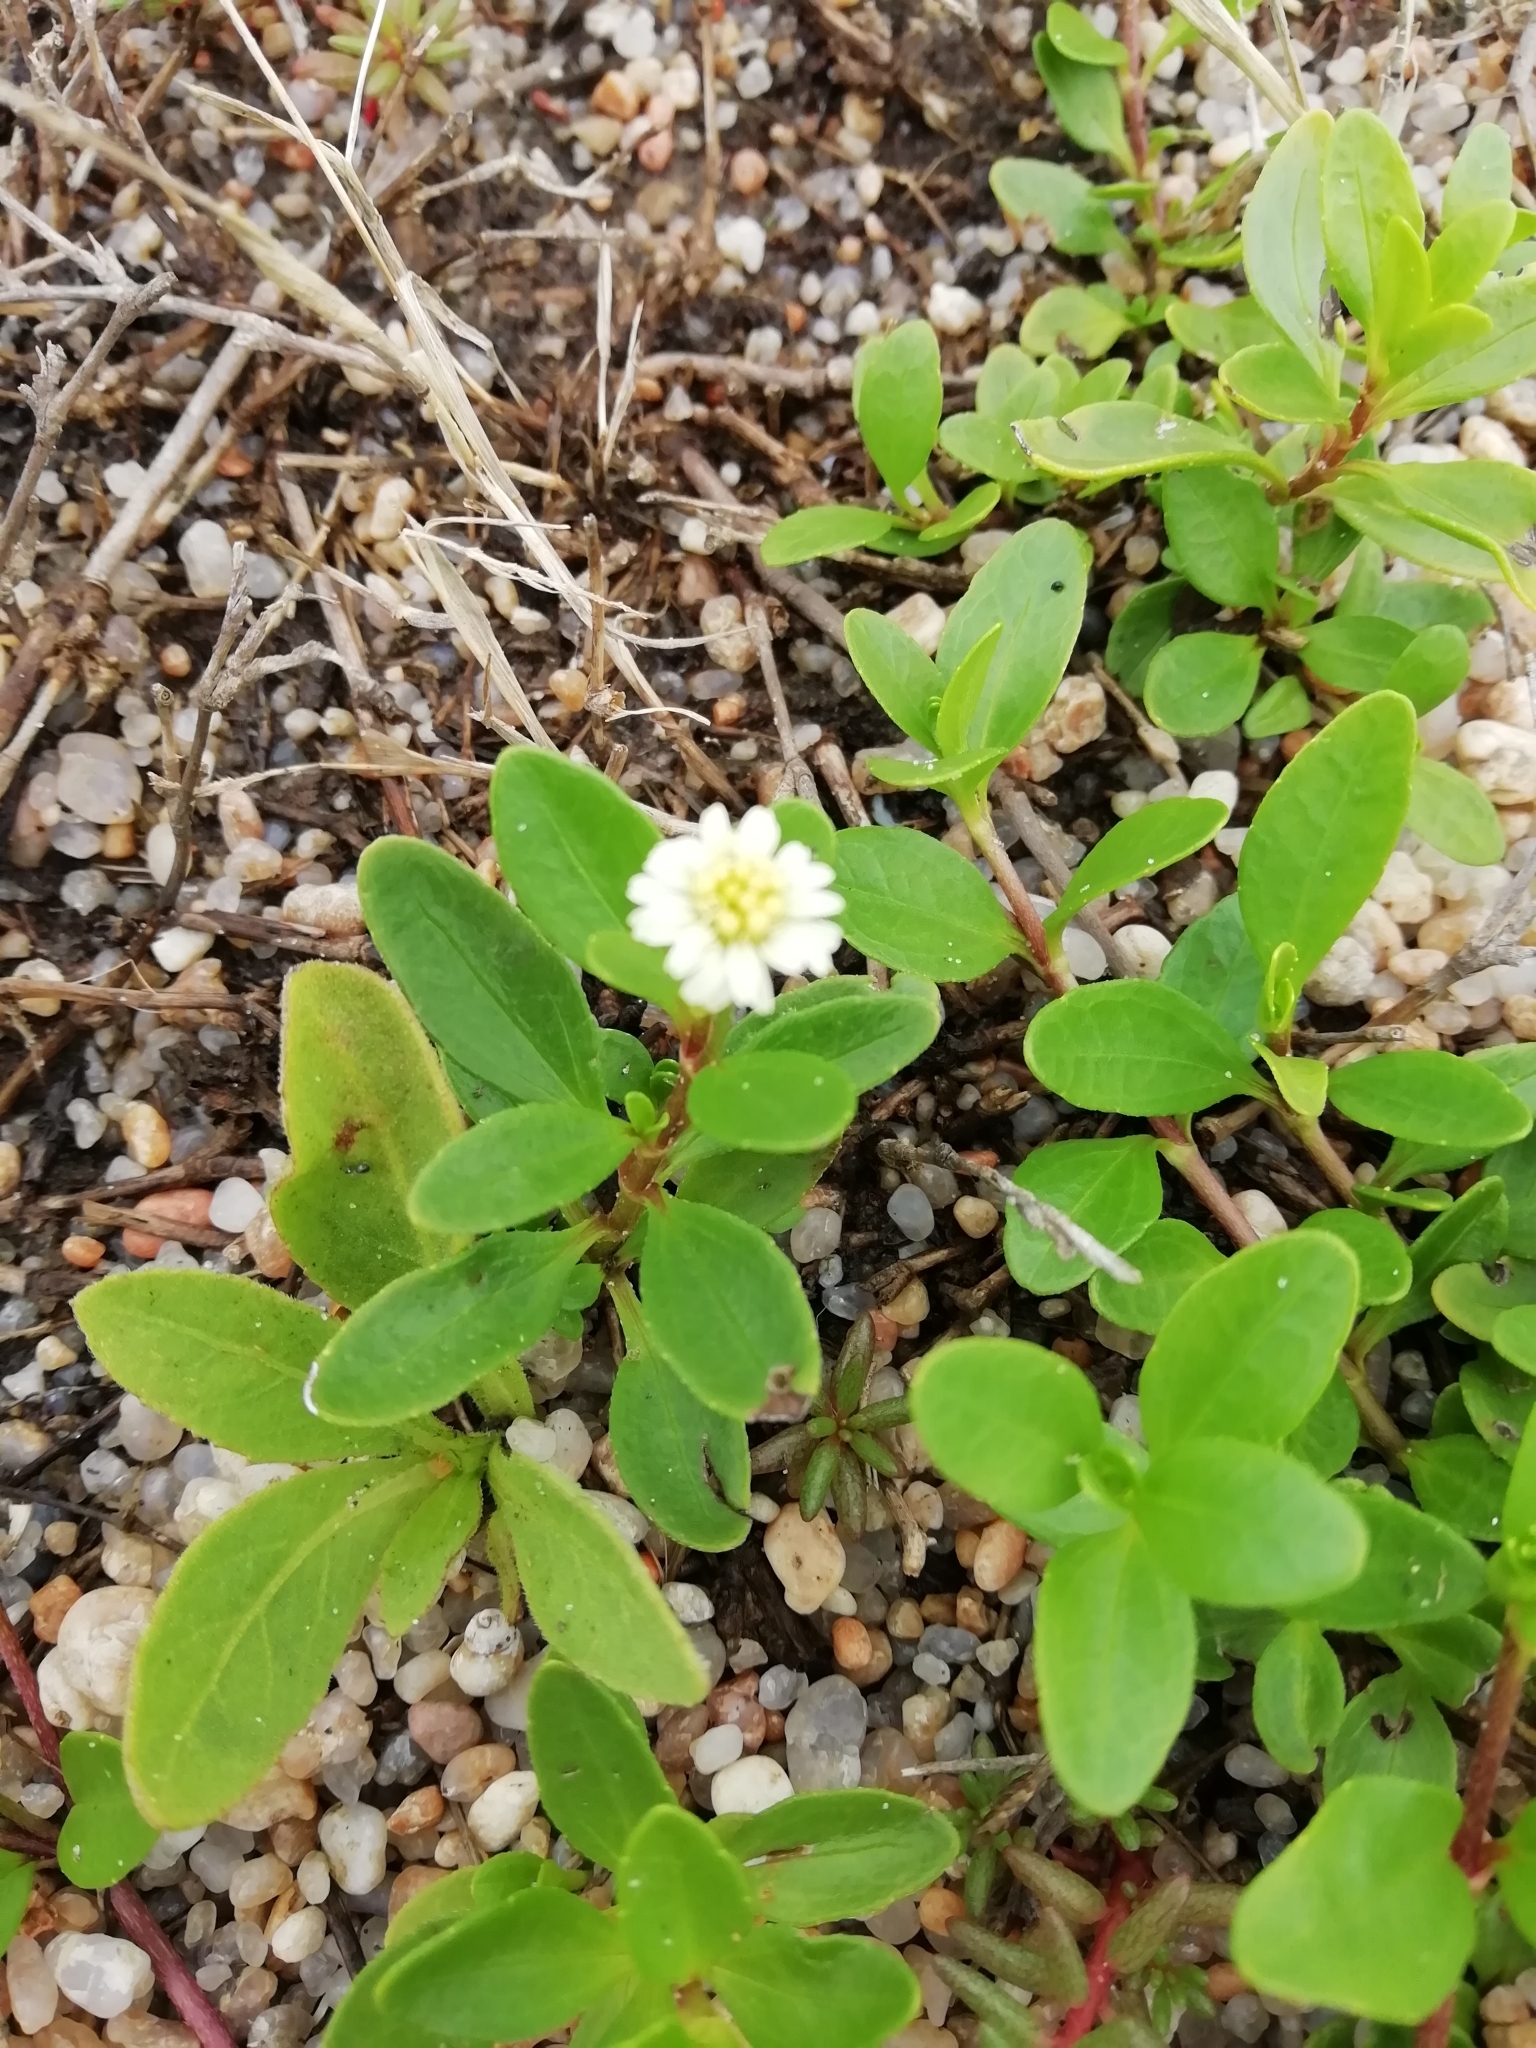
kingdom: Plantae
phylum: Tracheophyta
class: Magnoliopsida
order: Asterales
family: Asteraceae
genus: Eclipta
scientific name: Eclipta elliptica
